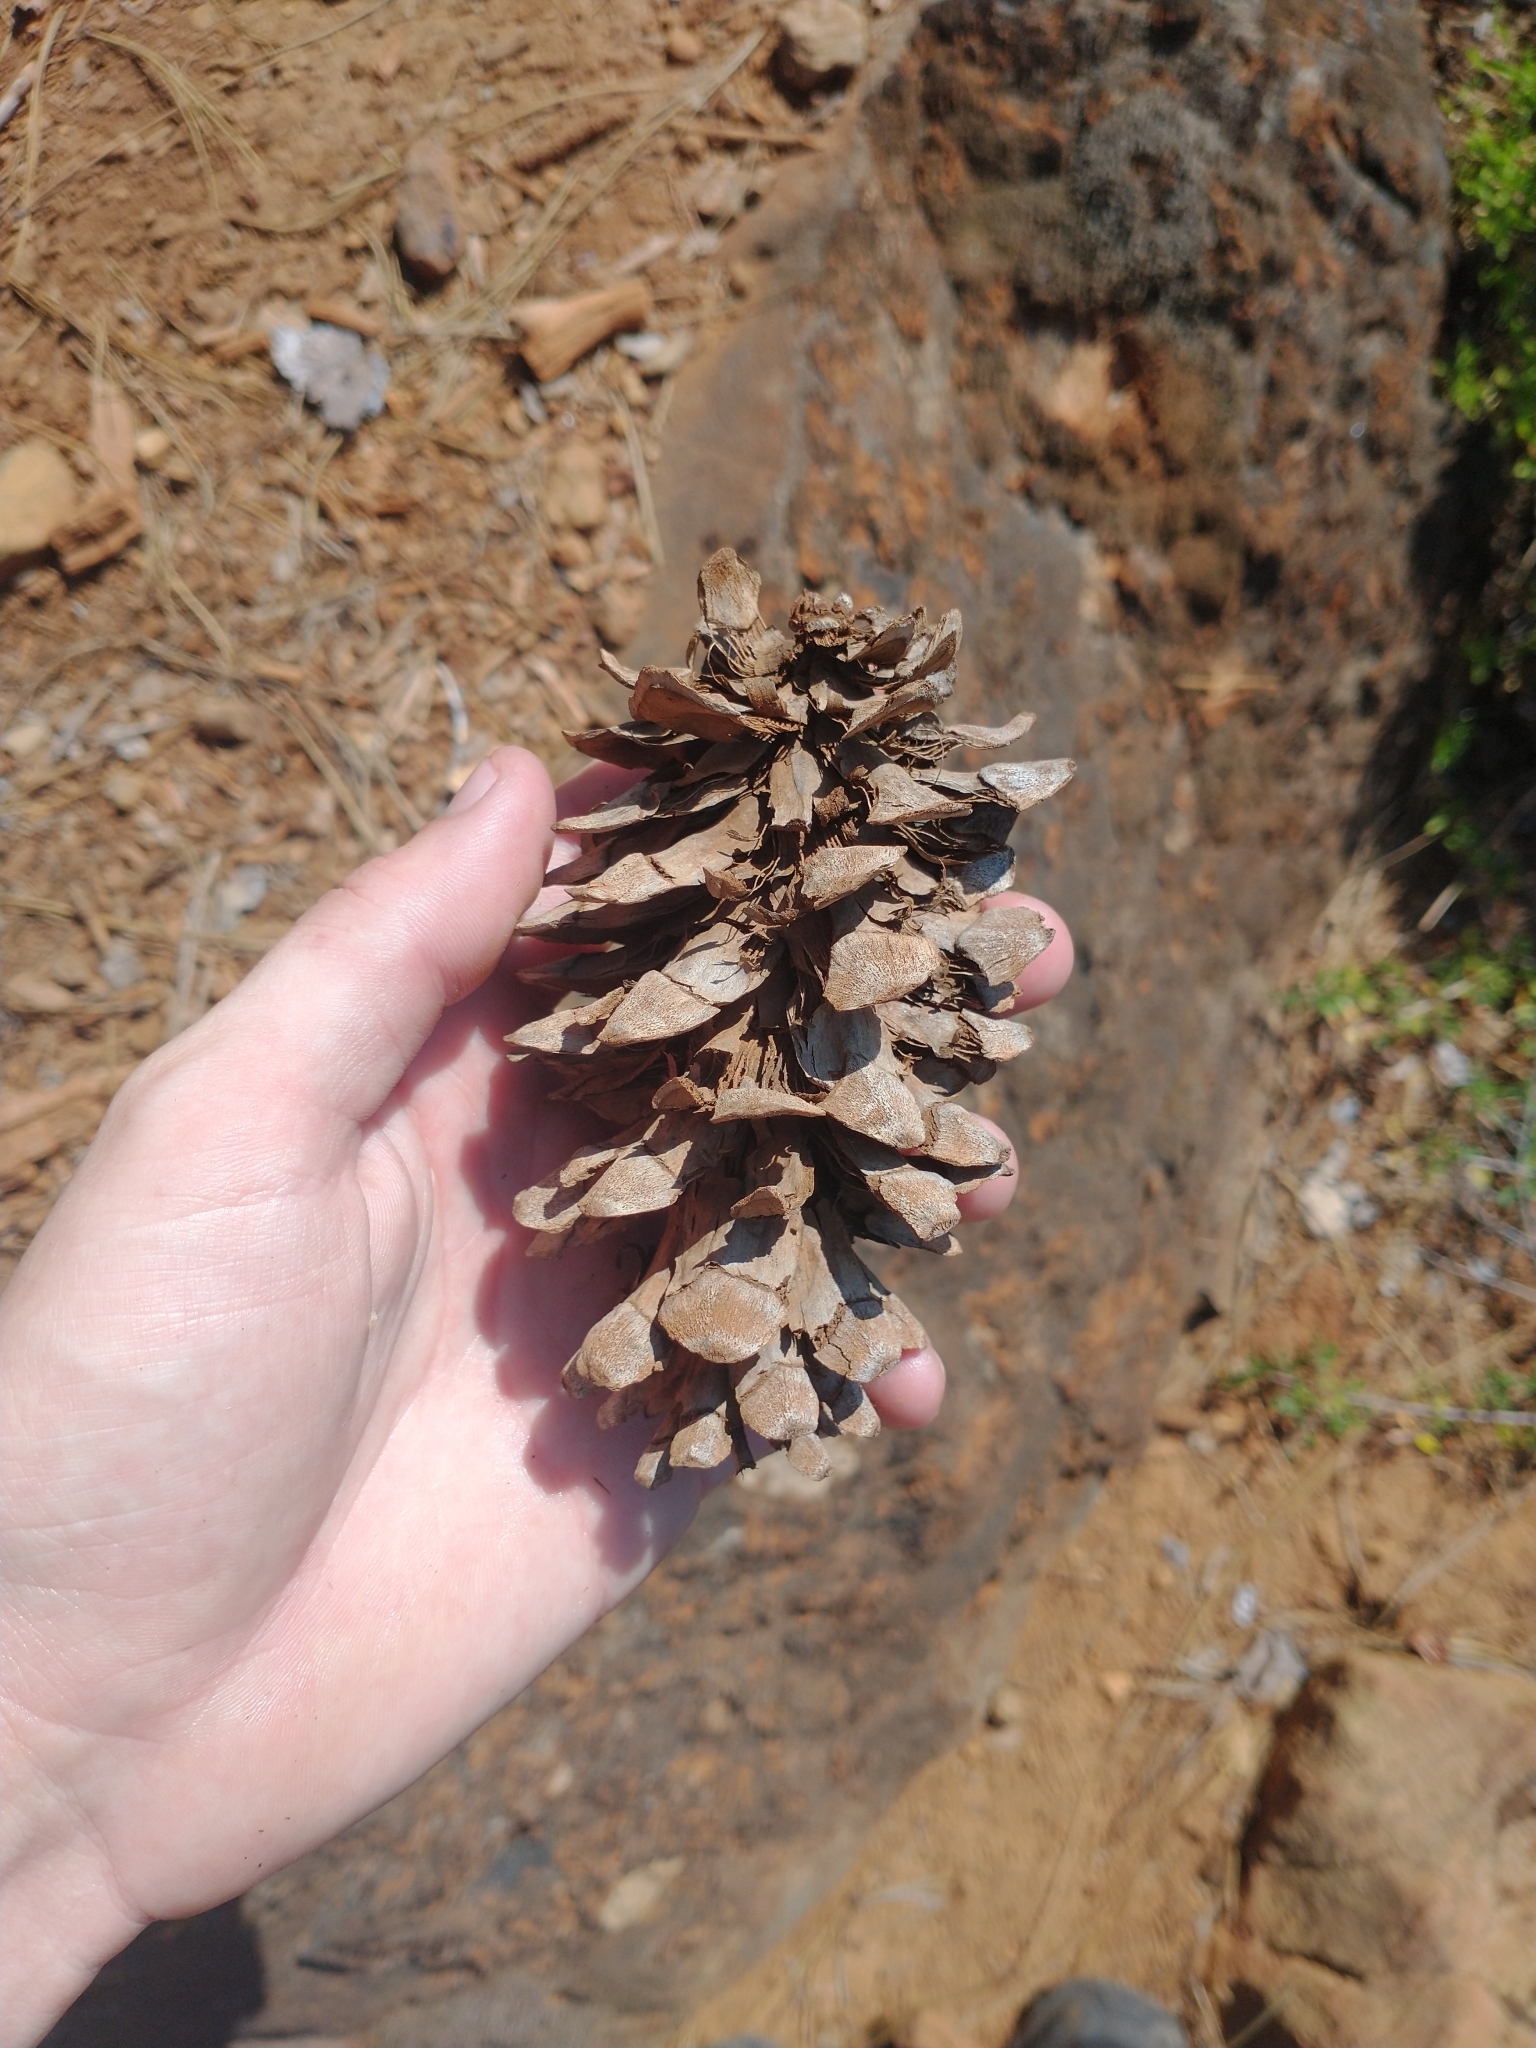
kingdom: Plantae
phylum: Tracheophyta
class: Pinopsida
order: Pinales
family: Pinaceae
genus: Pinus
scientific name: Pinus monticola
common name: Western white pine
